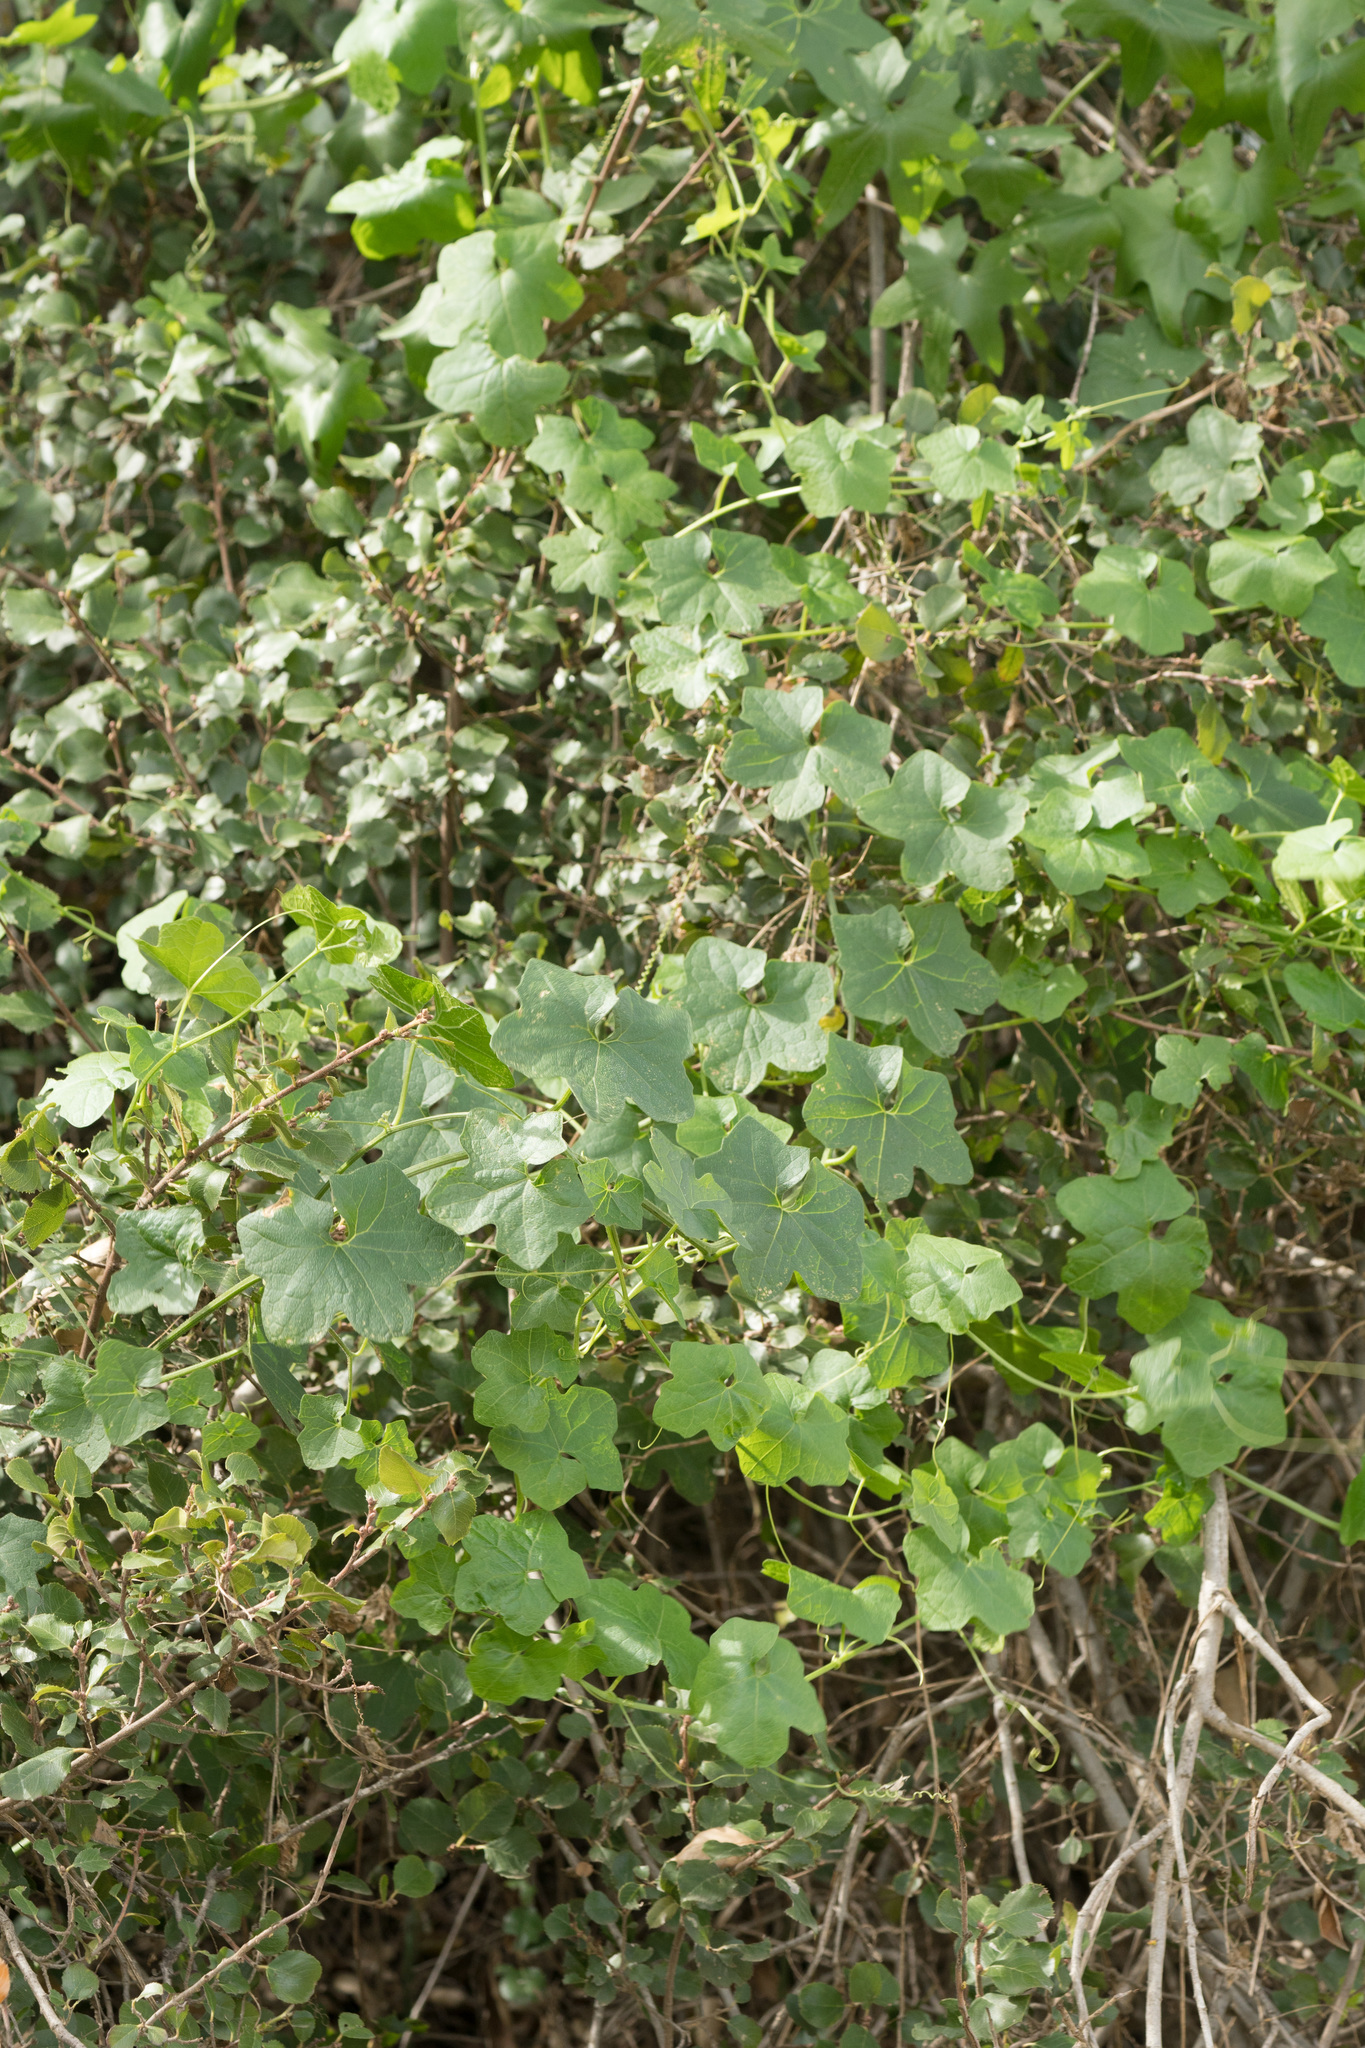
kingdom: Plantae
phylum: Tracheophyta
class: Magnoliopsida
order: Cucurbitales
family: Cucurbitaceae
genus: Marah
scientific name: Marah macrocarpa
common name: Cucamonga manroot
